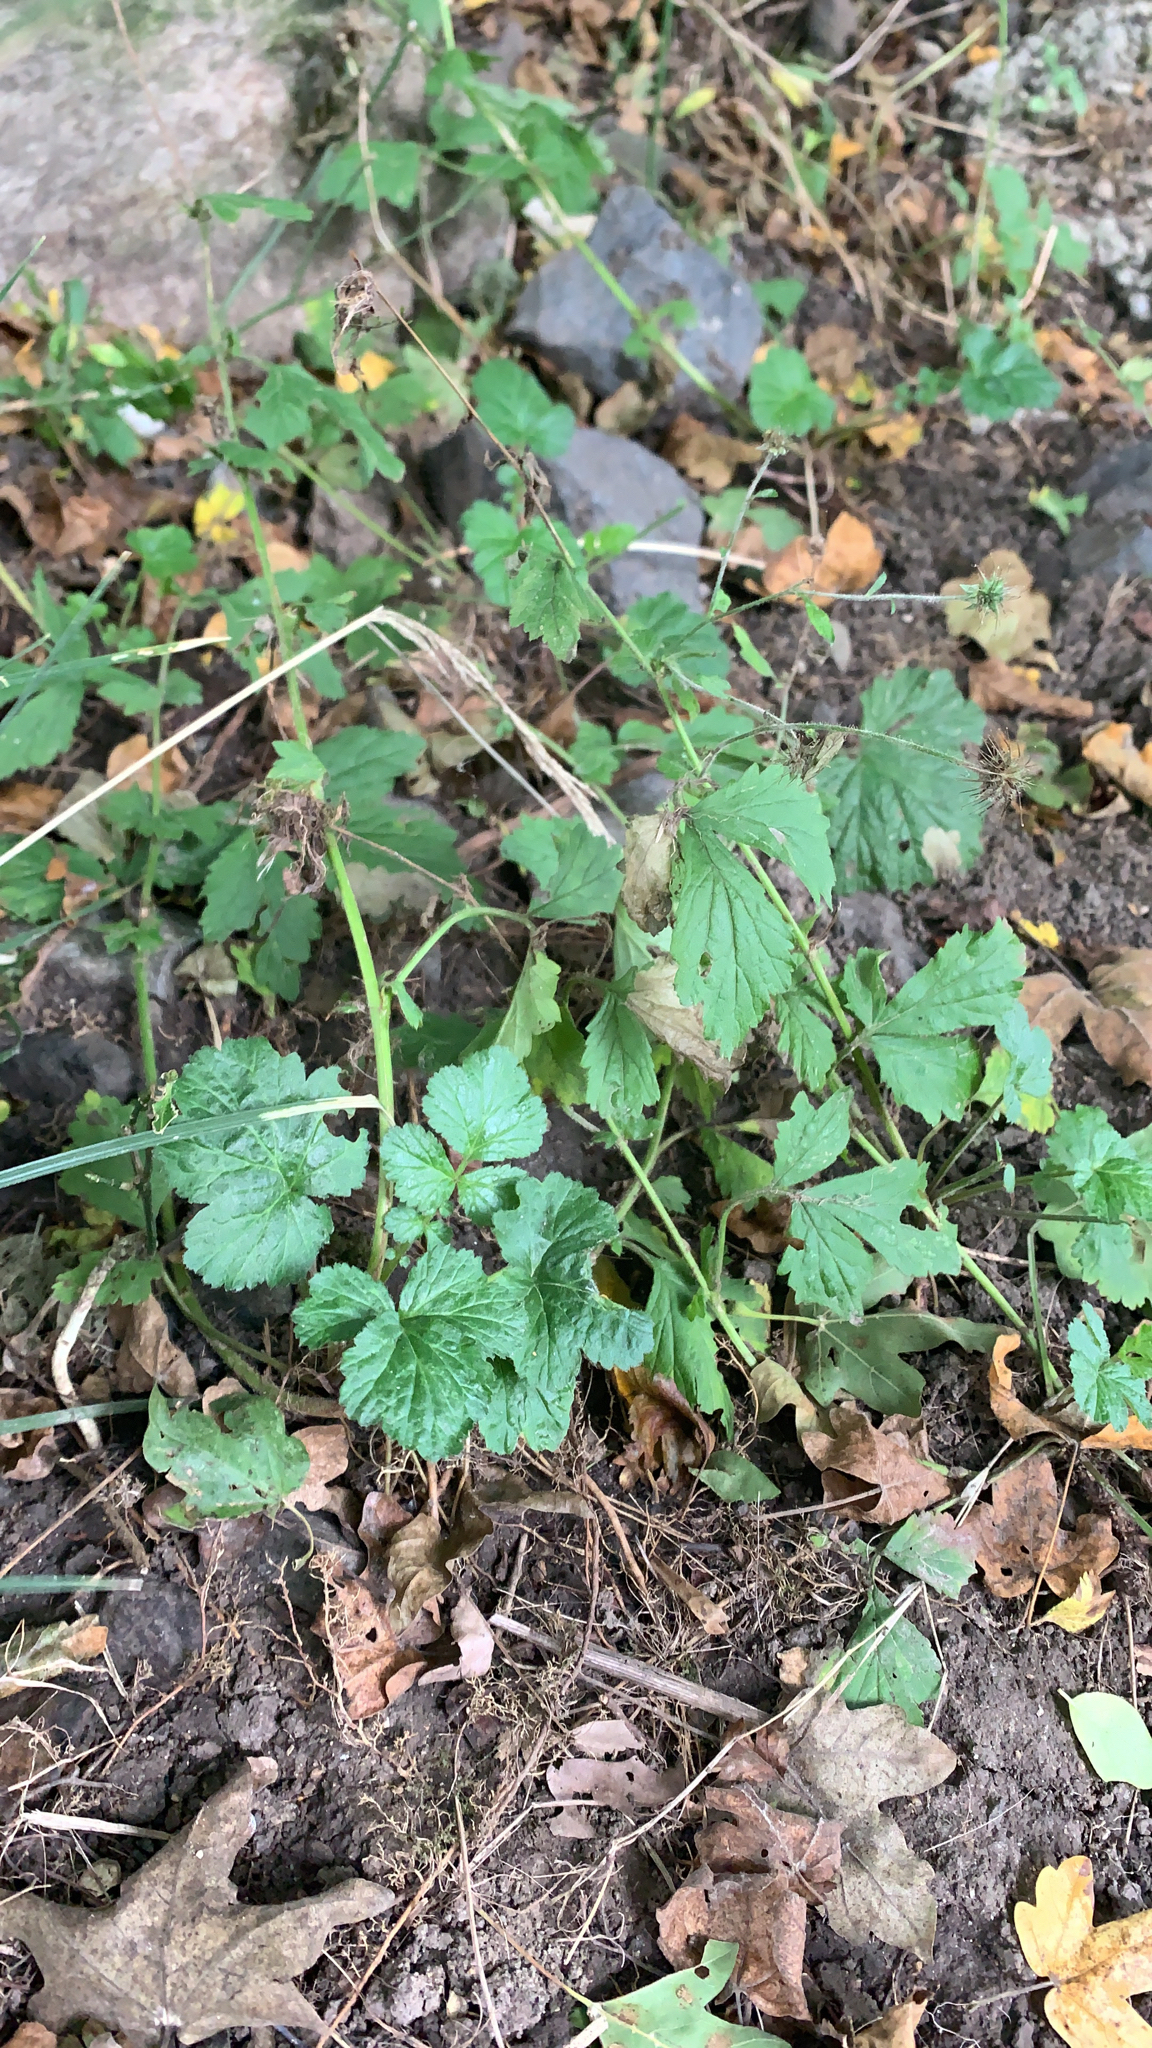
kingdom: Plantae
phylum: Tracheophyta
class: Magnoliopsida
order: Rosales
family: Rosaceae
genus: Geum
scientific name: Geum urbanum
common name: Wood avens
